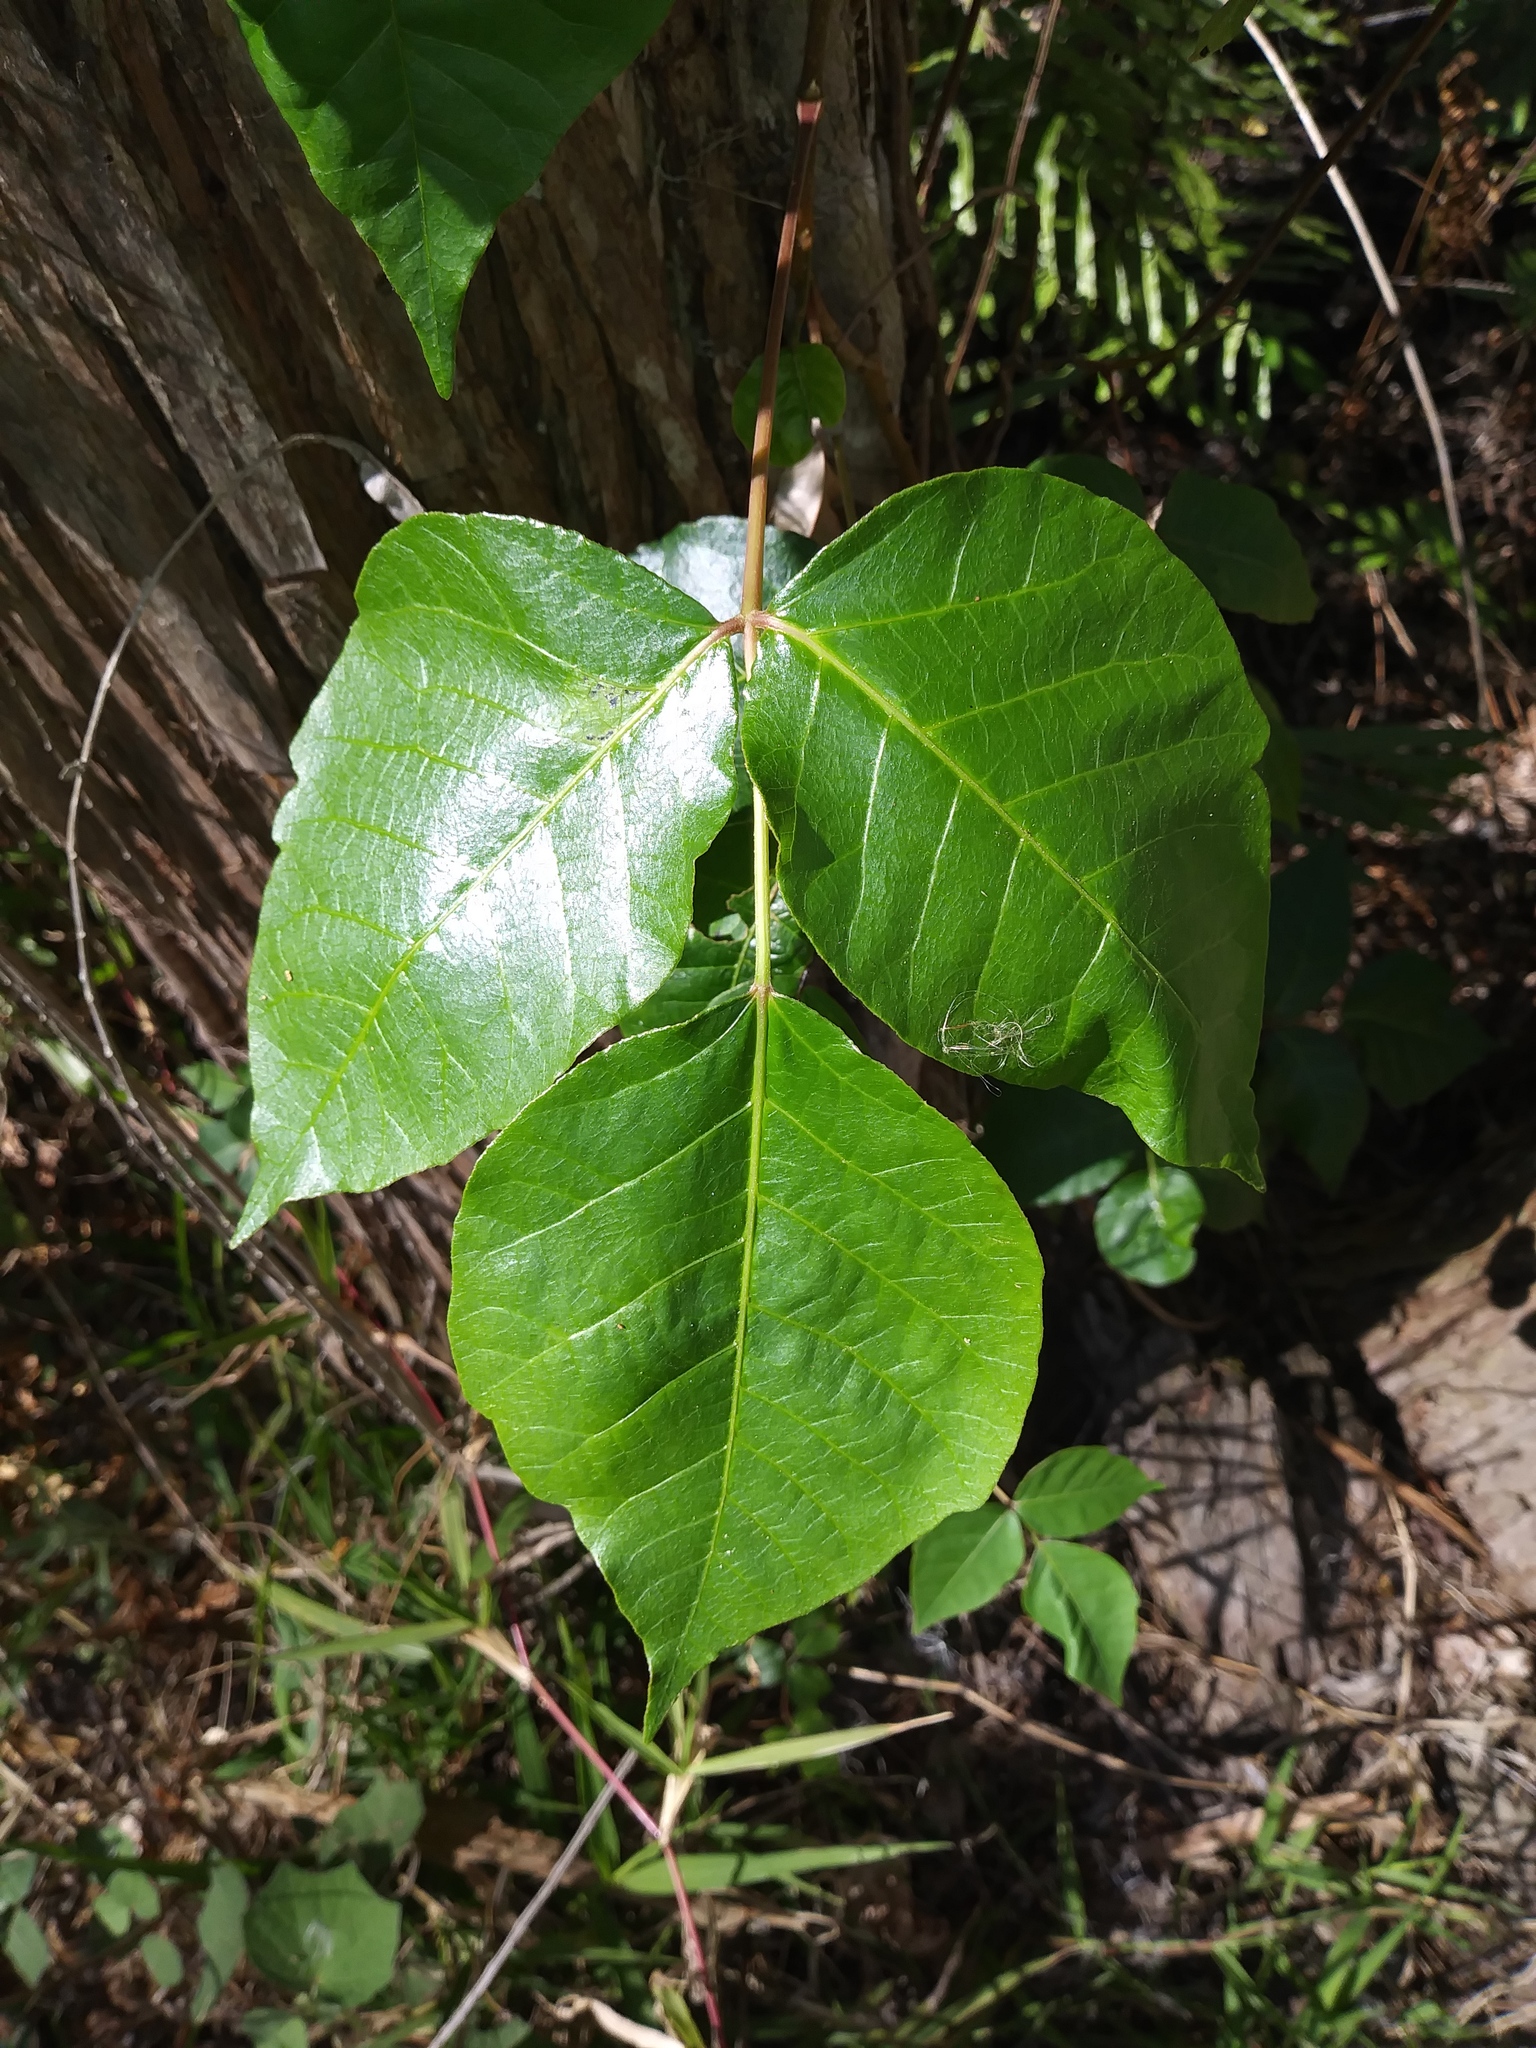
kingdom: Plantae
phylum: Tracheophyta
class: Magnoliopsida
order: Sapindales
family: Anacardiaceae
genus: Toxicodendron
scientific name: Toxicodendron radicans
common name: Poison ivy
